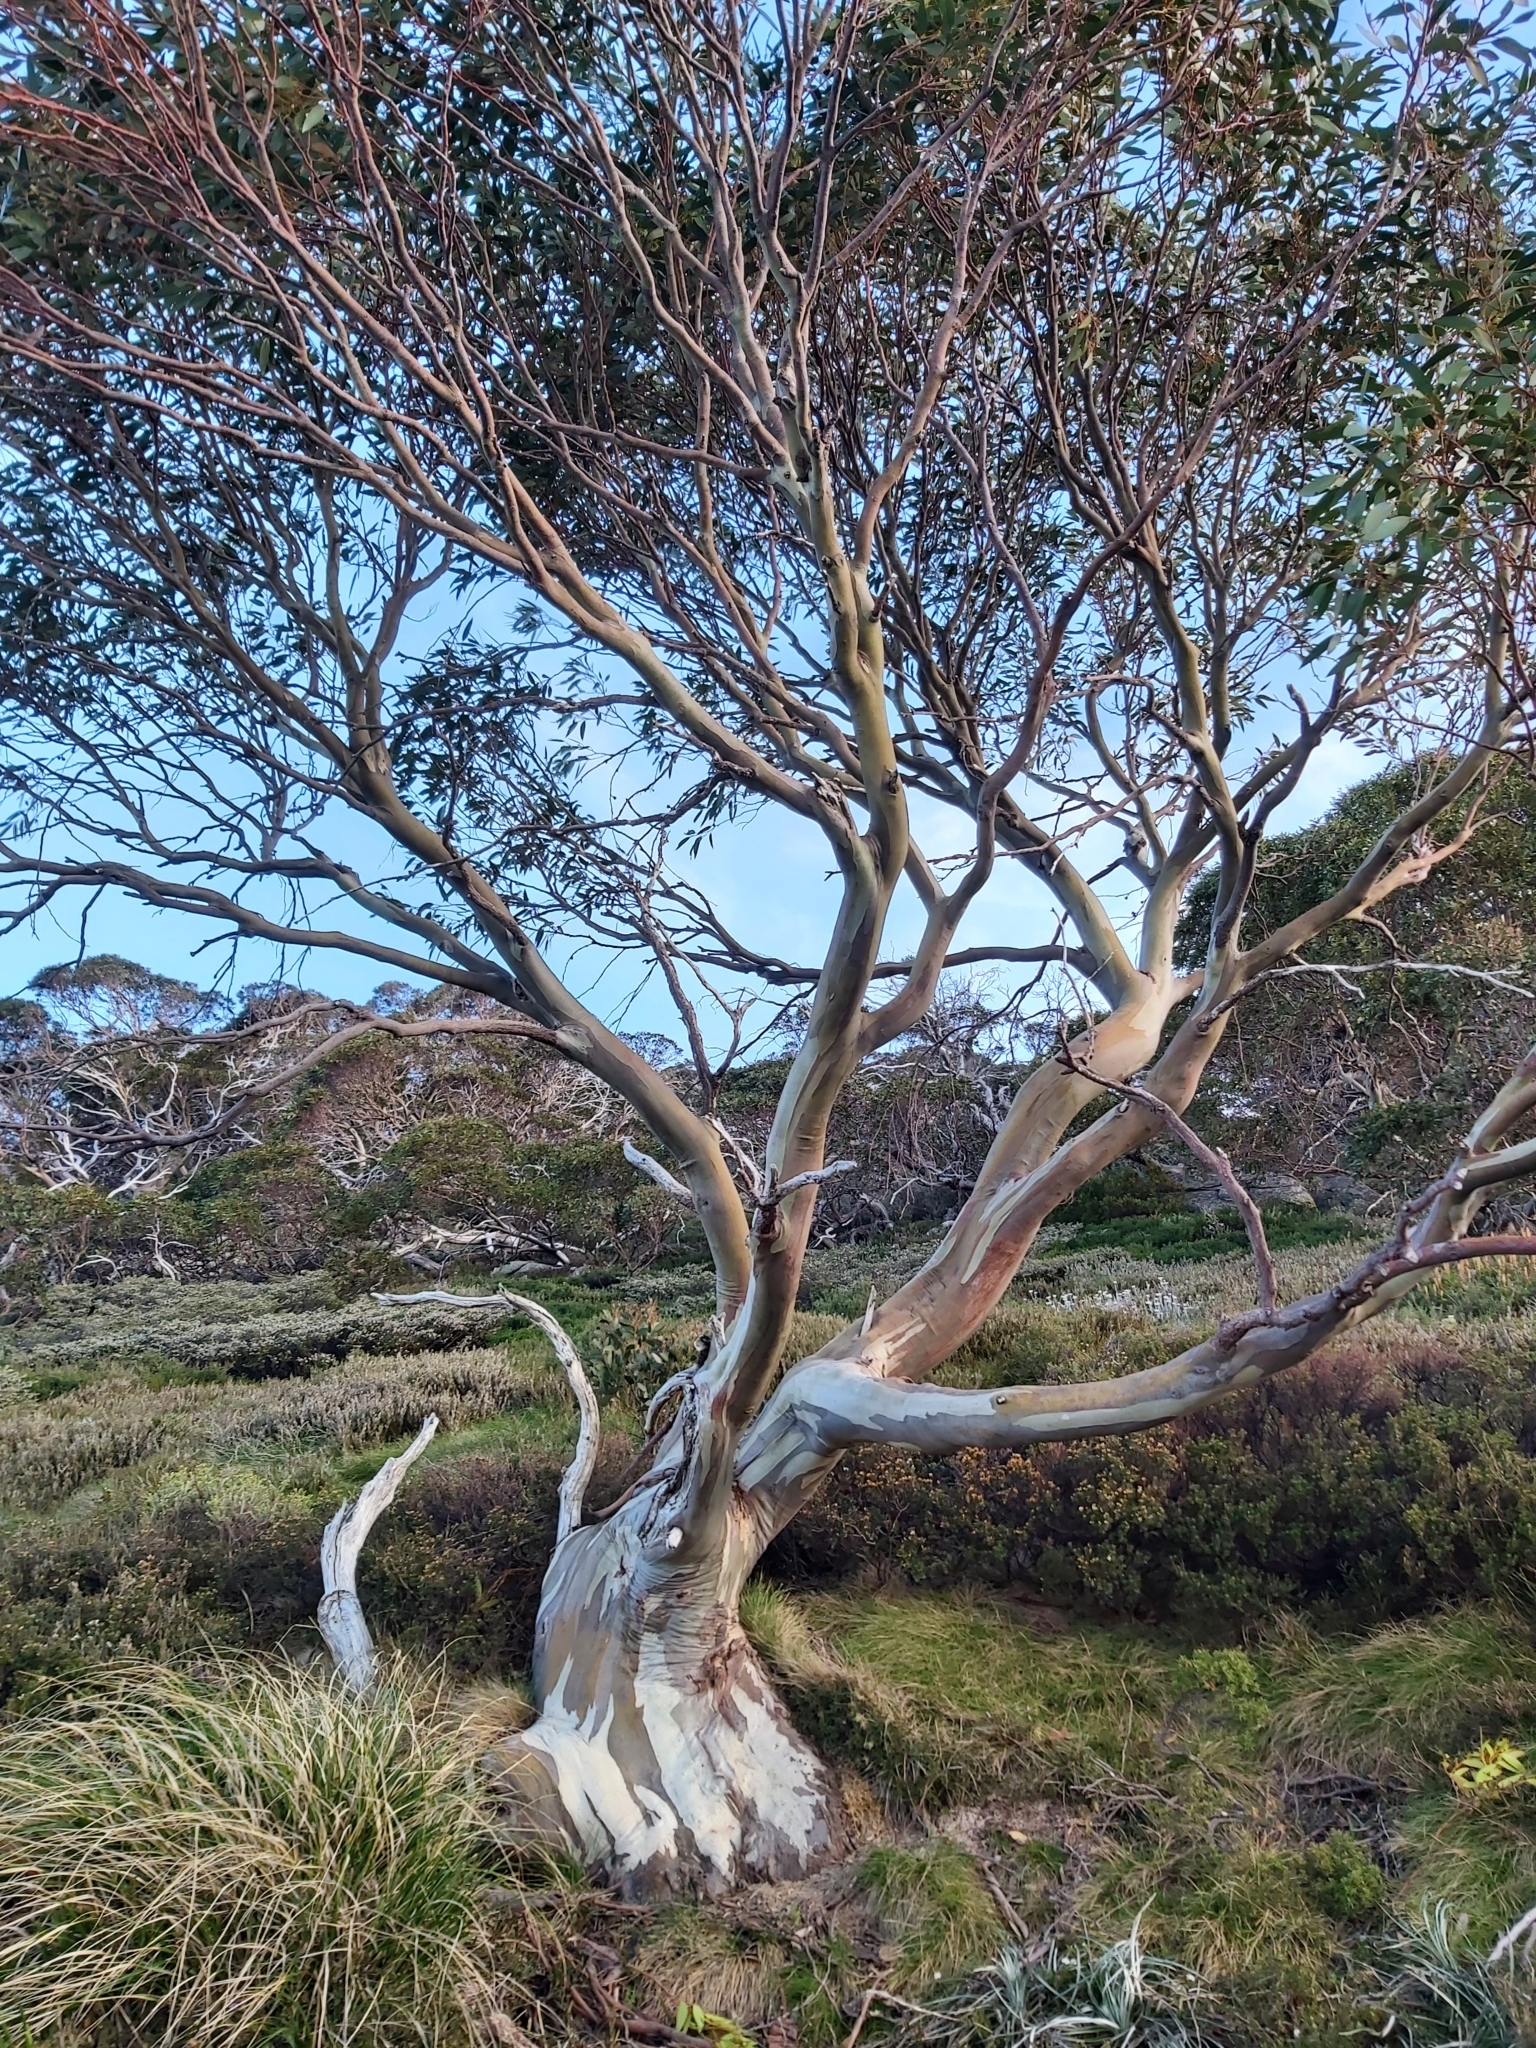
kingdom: Plantae
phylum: Tracheophyta
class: Magnoliopsida
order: Myrtales
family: Myrtaceae
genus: Eucalyptus
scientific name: Eucalyptus pauciflora
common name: Snow gum
